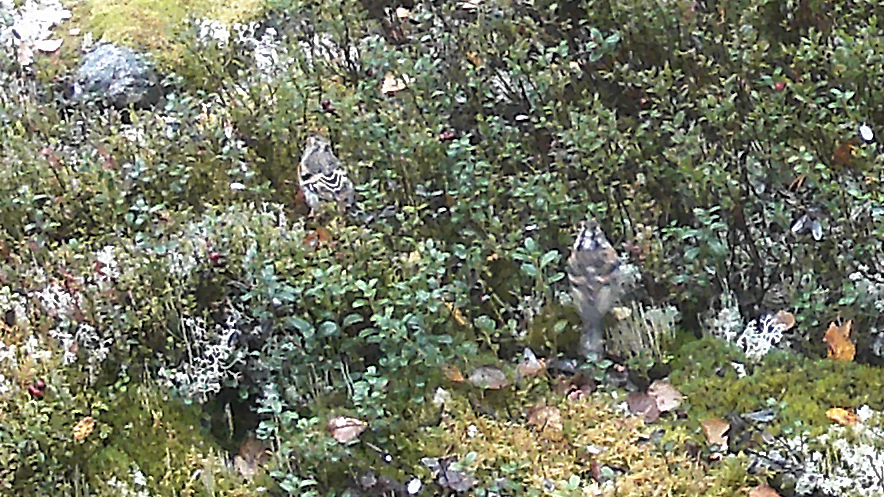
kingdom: Animalia
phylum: Chordata
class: Aves
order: Passeriformes
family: Fringillidae
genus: Fringilla
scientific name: Fringilla montifringilla
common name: Brambling
